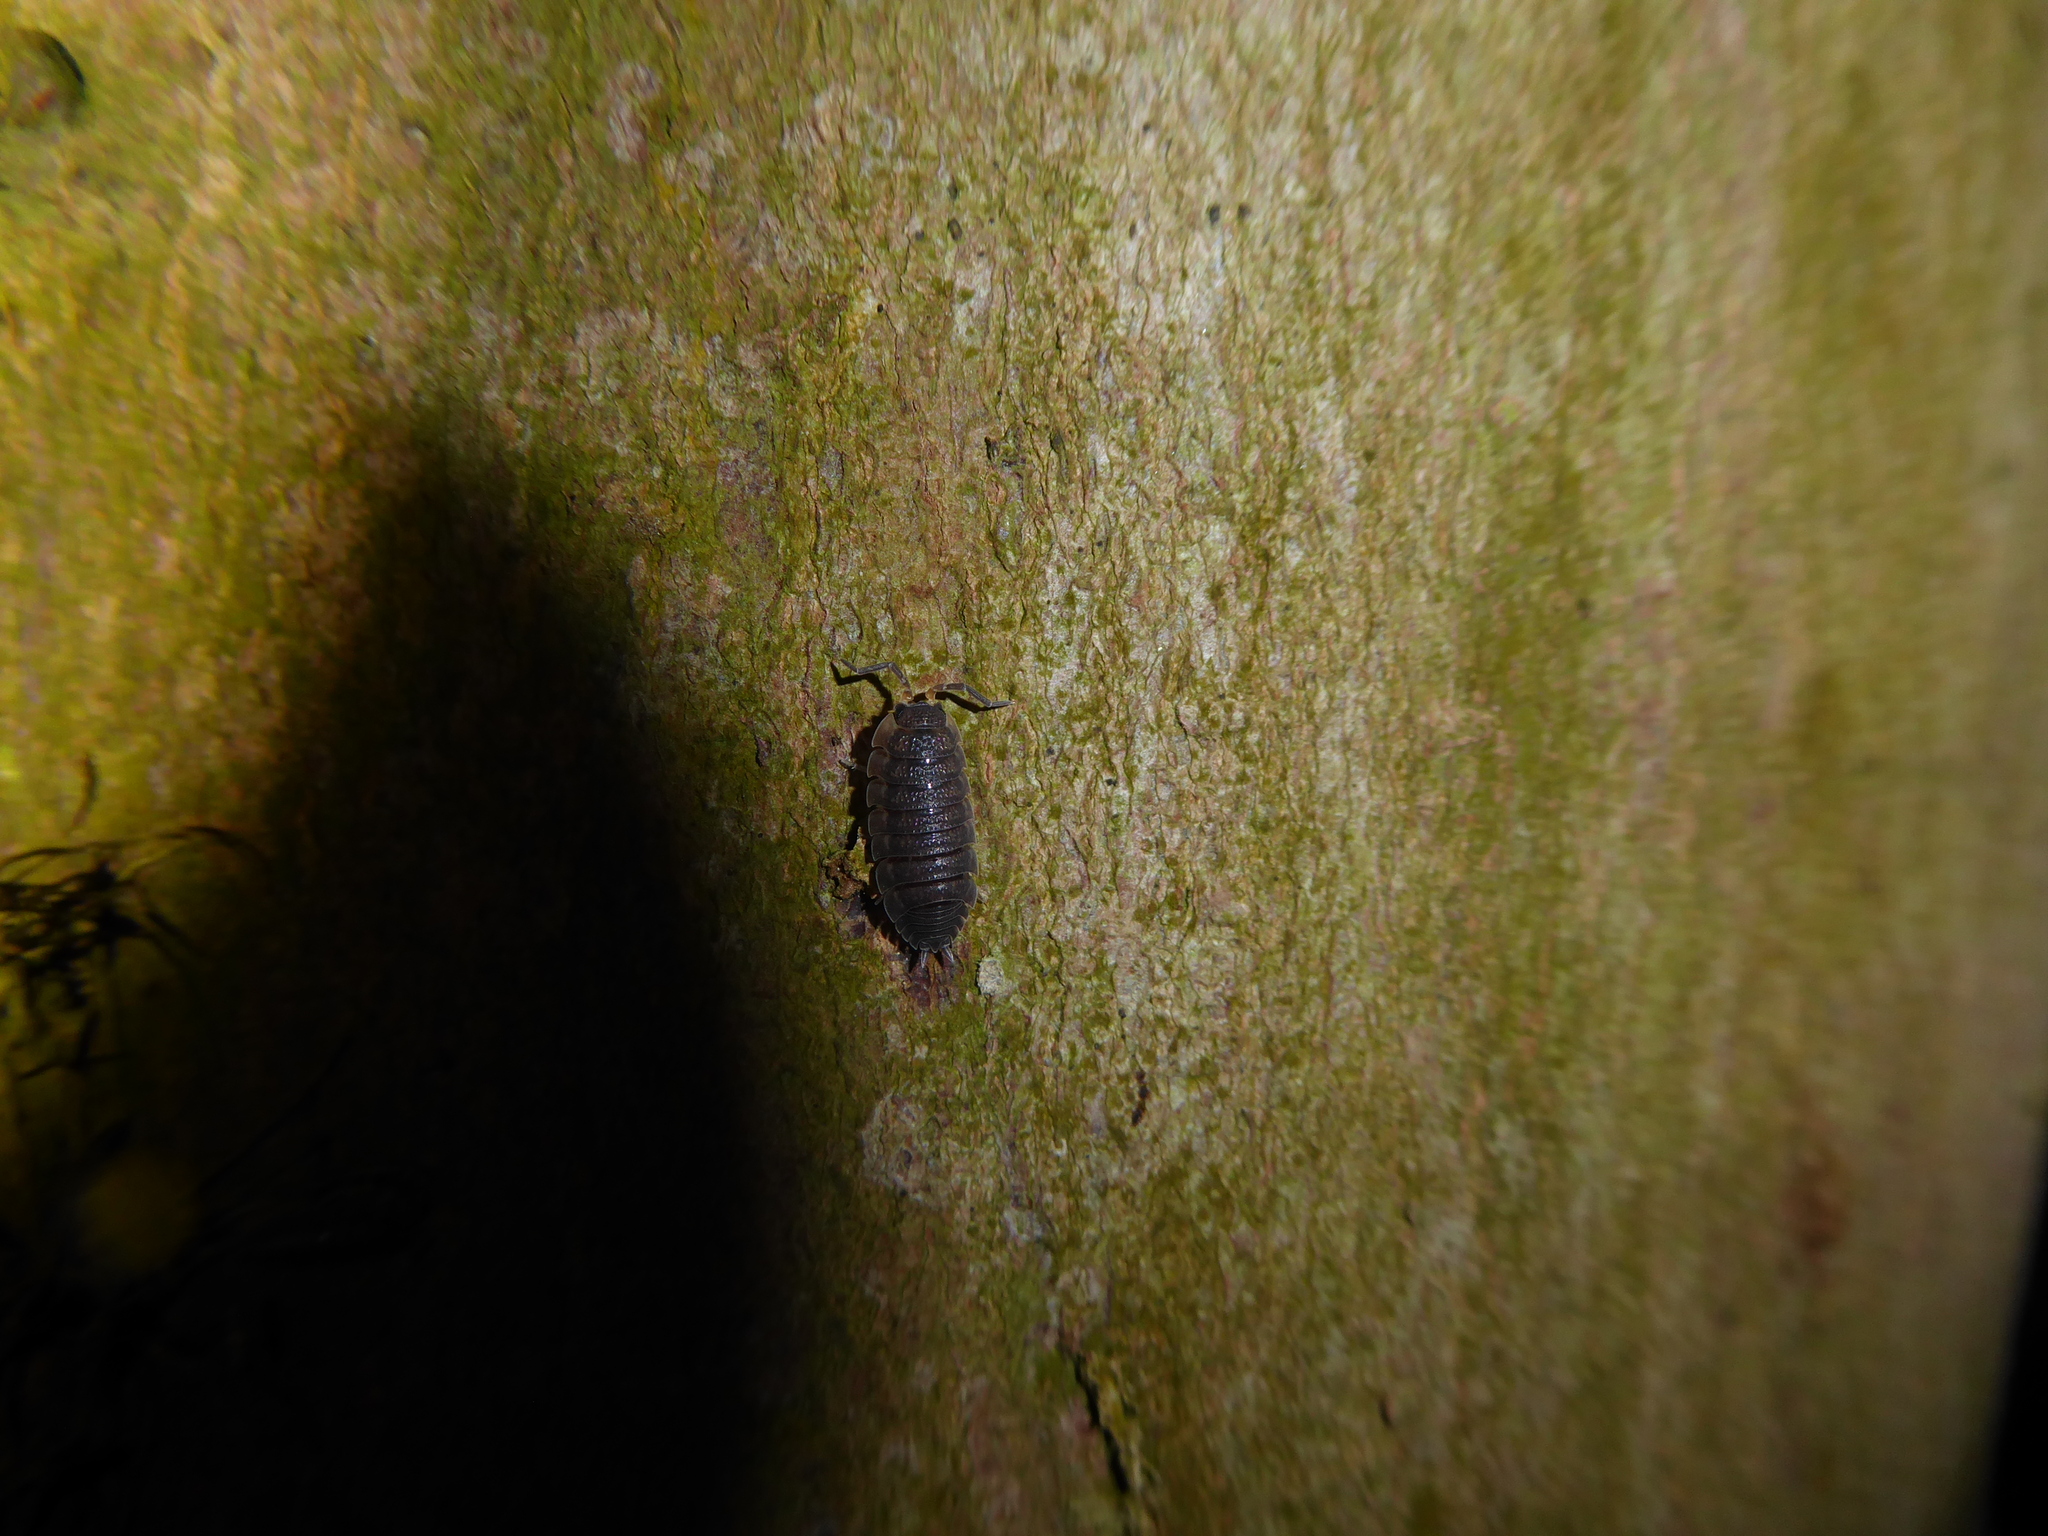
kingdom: Animalia
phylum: Arthropoda
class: Malacostraca
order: Isopoda
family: Porcellionidae
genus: Porcellio
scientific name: Porcellio scaber
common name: Common rough woodlouse
